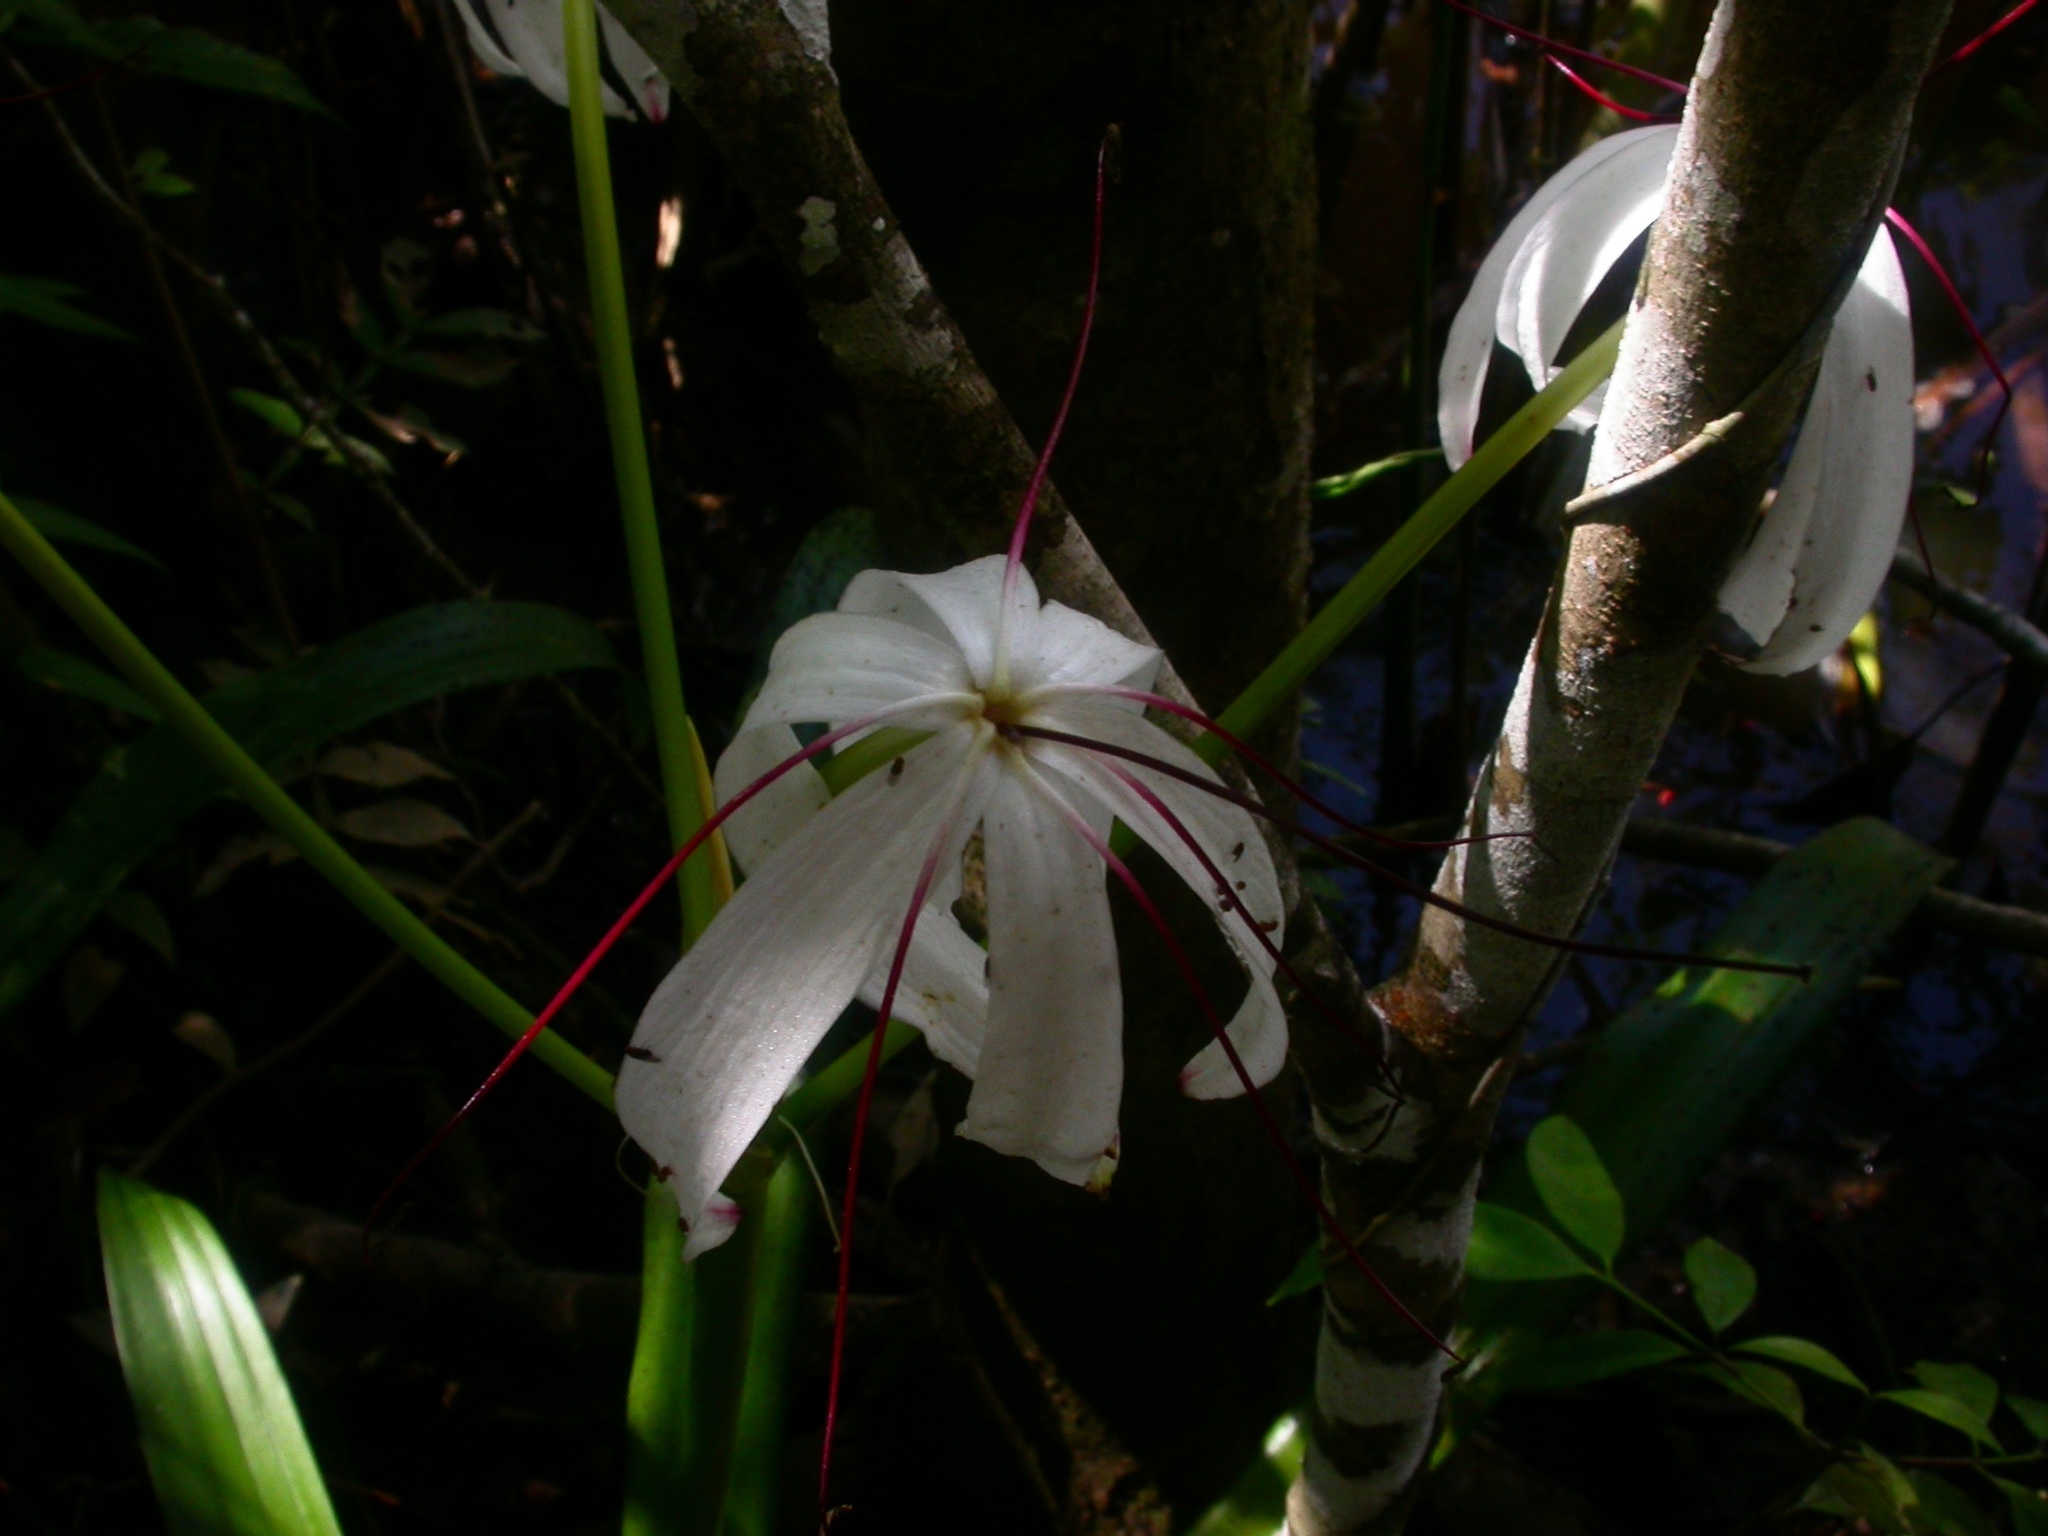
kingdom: Plantae
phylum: Tracheophyta
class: Liliopsida
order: Asparagales
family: Amaryllidaceae
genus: Crinum
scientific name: Crinum erubescens
